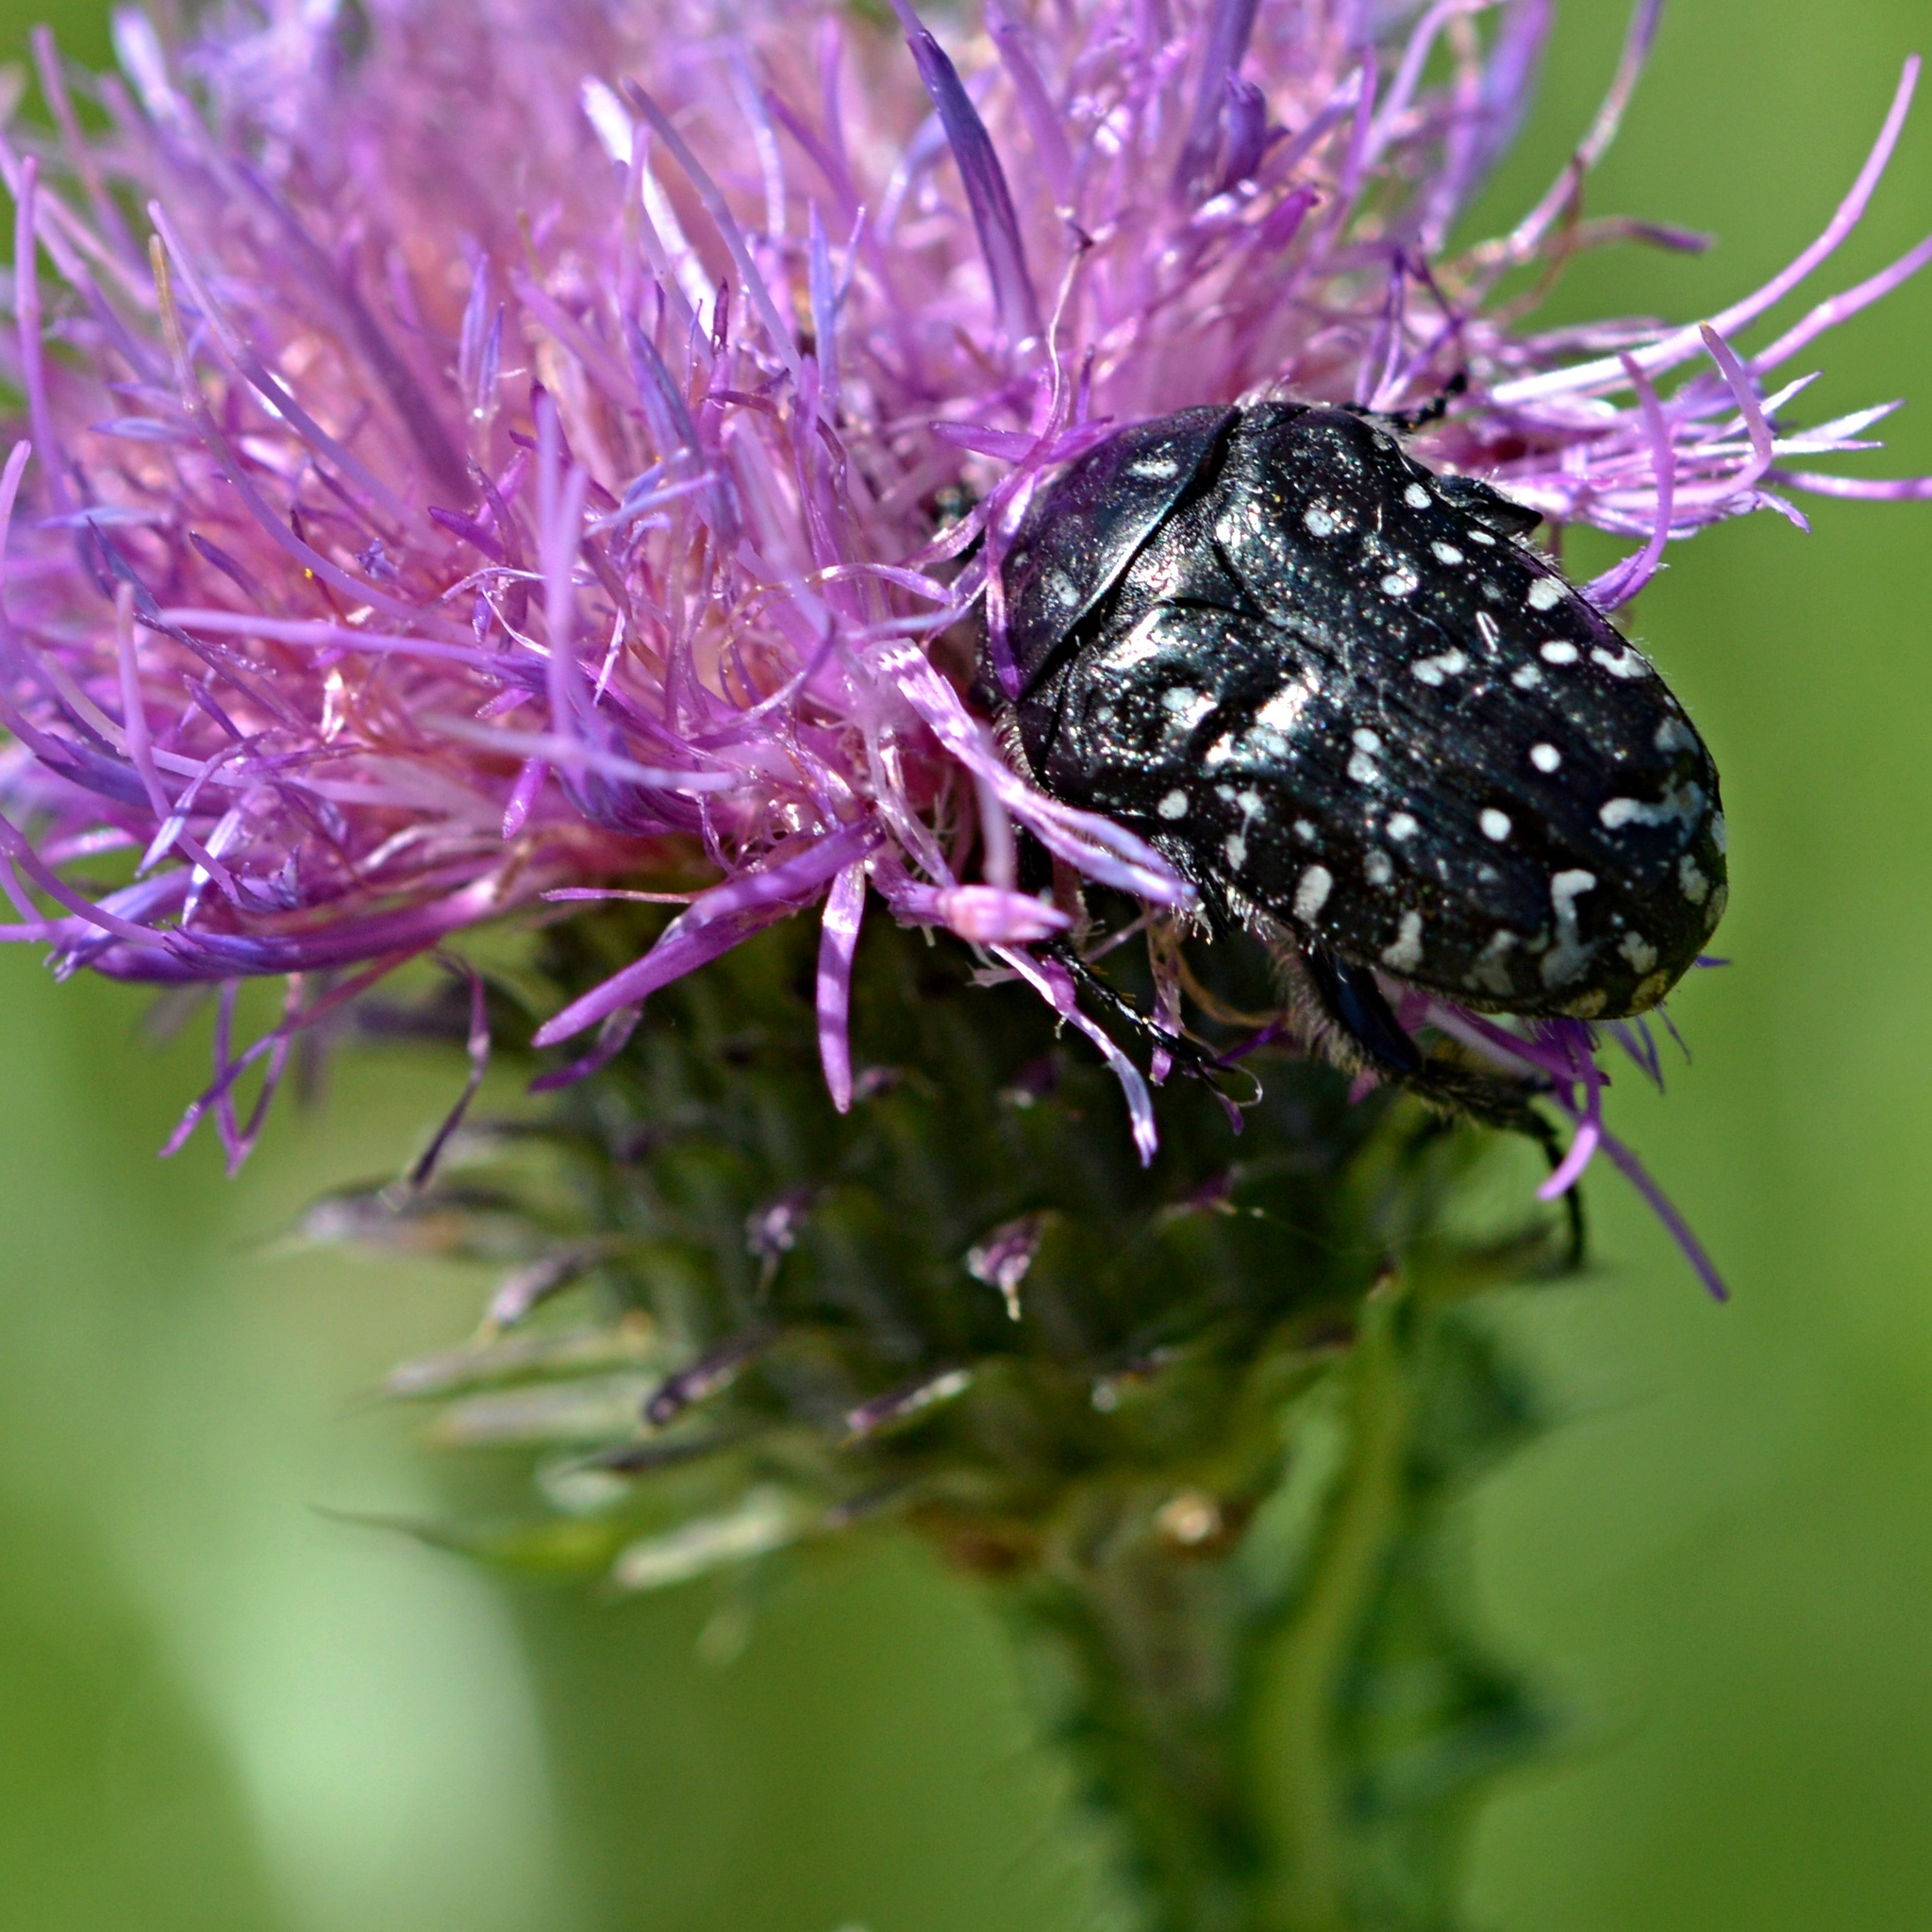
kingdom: Animalia
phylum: Arthropoda
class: Insecta
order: Coleoptera
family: Scarabaeidae
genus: Oxythyrea
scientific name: Oxythyrea funesta
